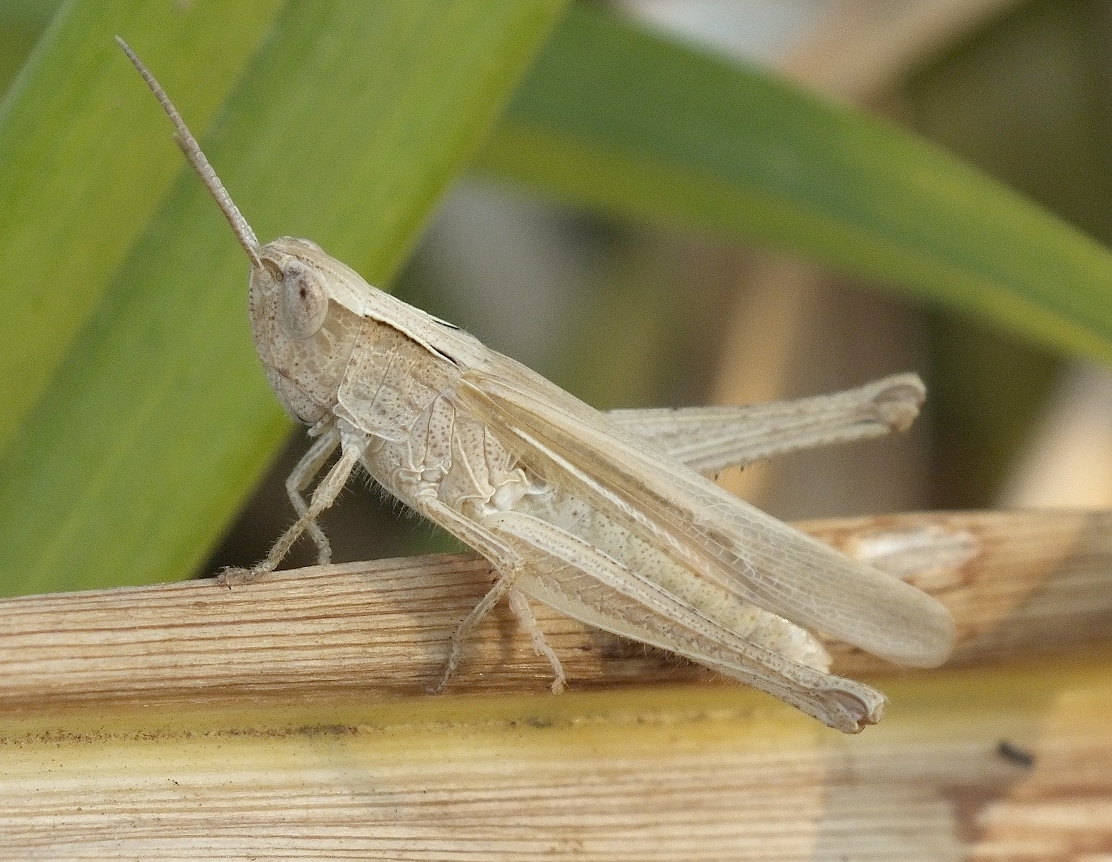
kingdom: Animalia
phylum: Arthropoda
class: Insecta
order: Orthoptera
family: Acrididae
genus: Chorthippus
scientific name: Chorthippus dichrous
